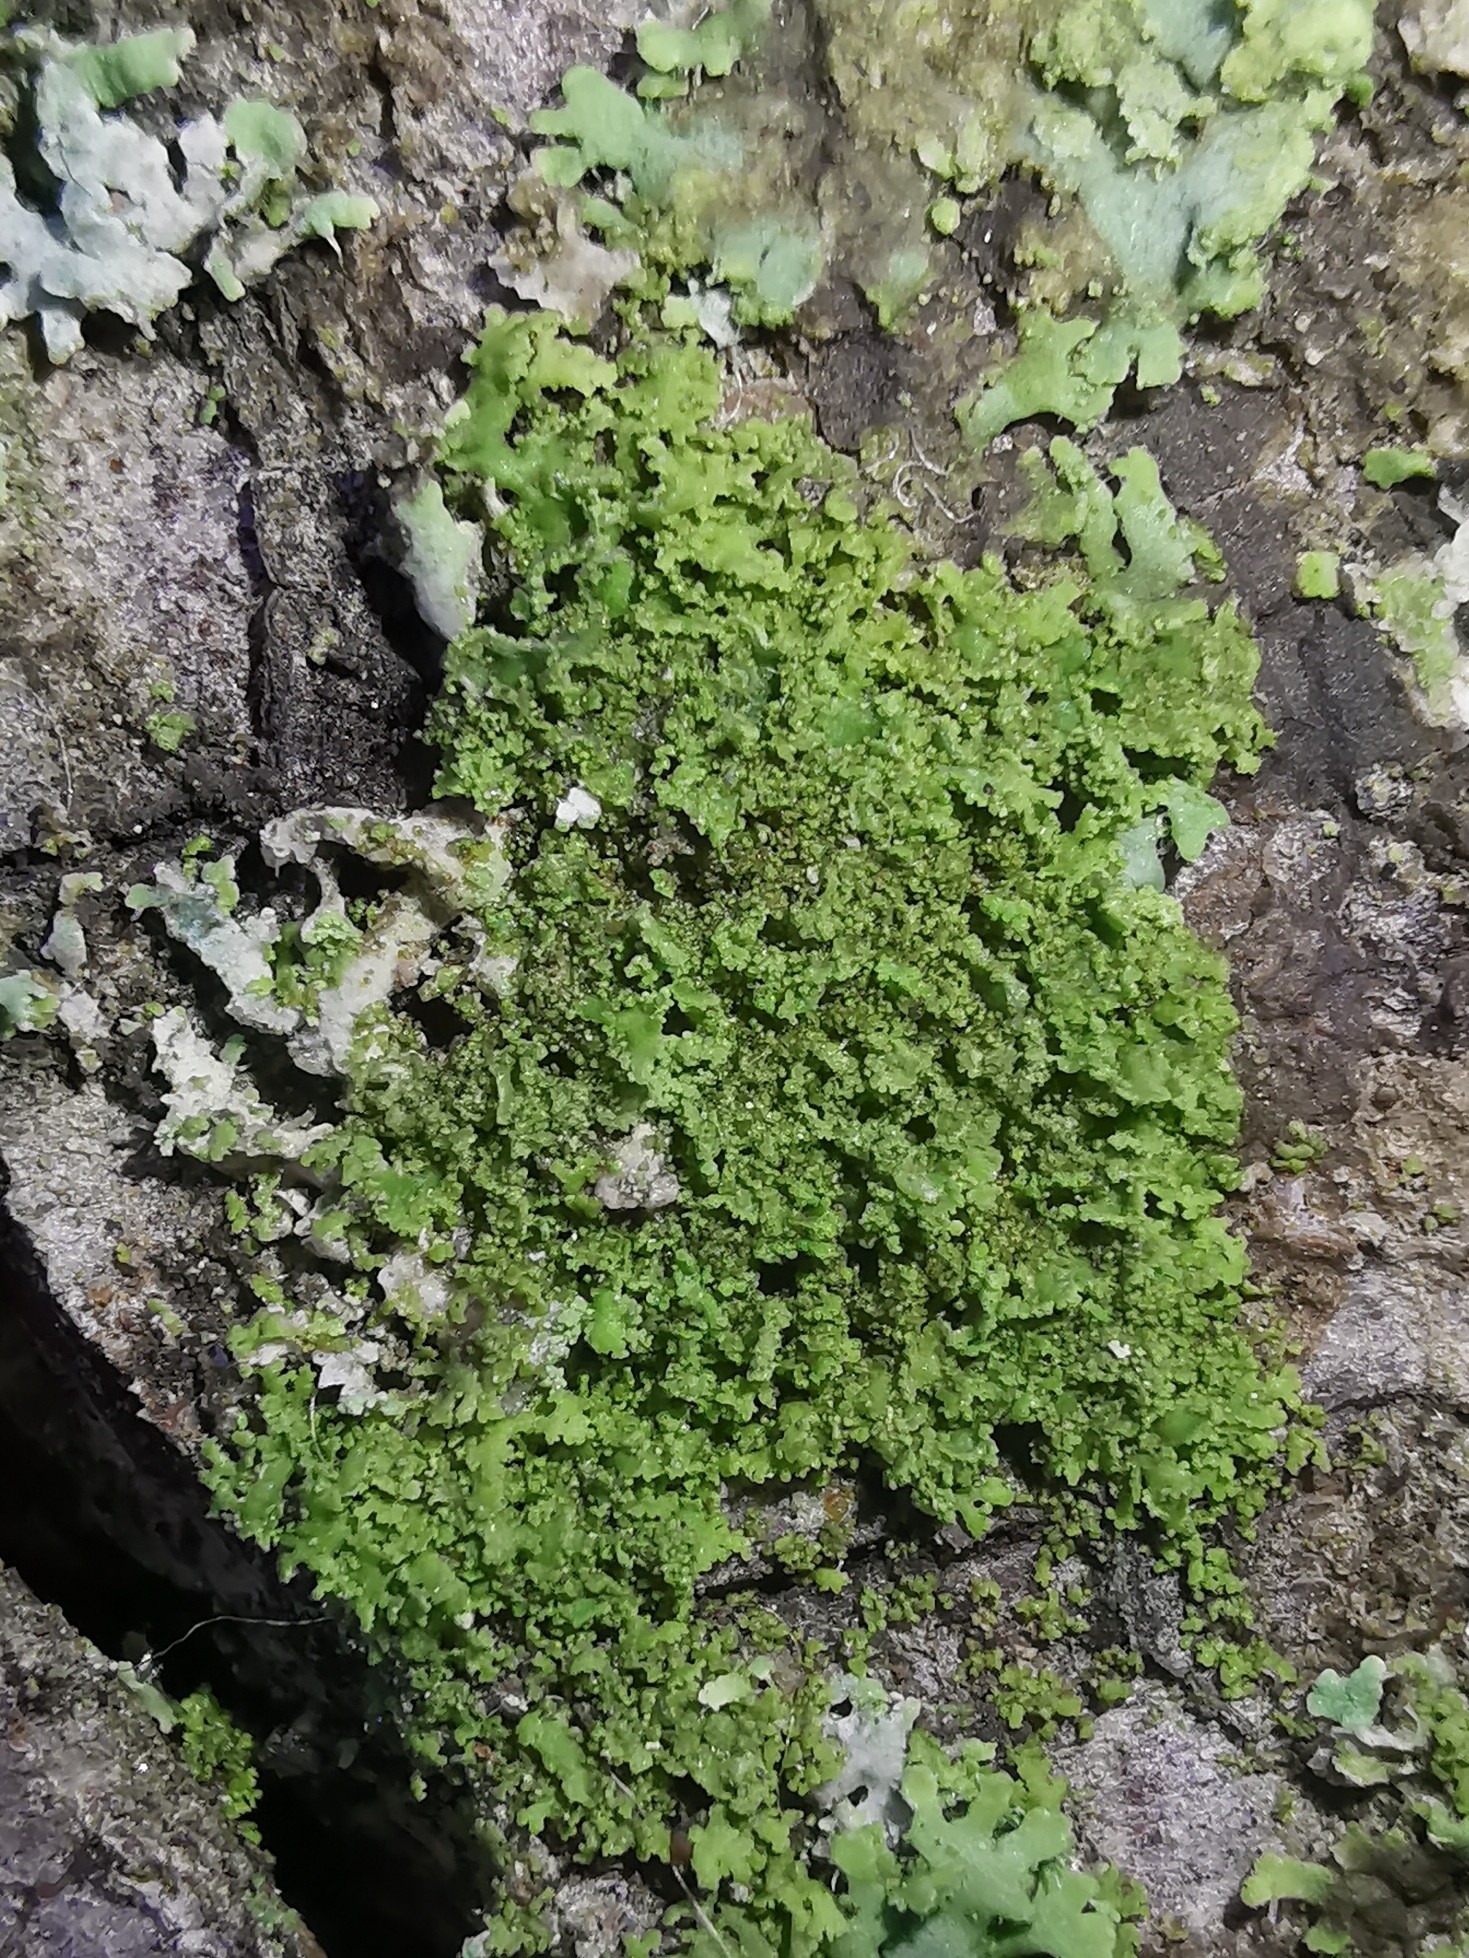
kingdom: Fungi
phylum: Ascomycota
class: Lecanoromycetes
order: Caliciales
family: Physciaceae
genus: Physciella
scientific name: Physciella nigricans
